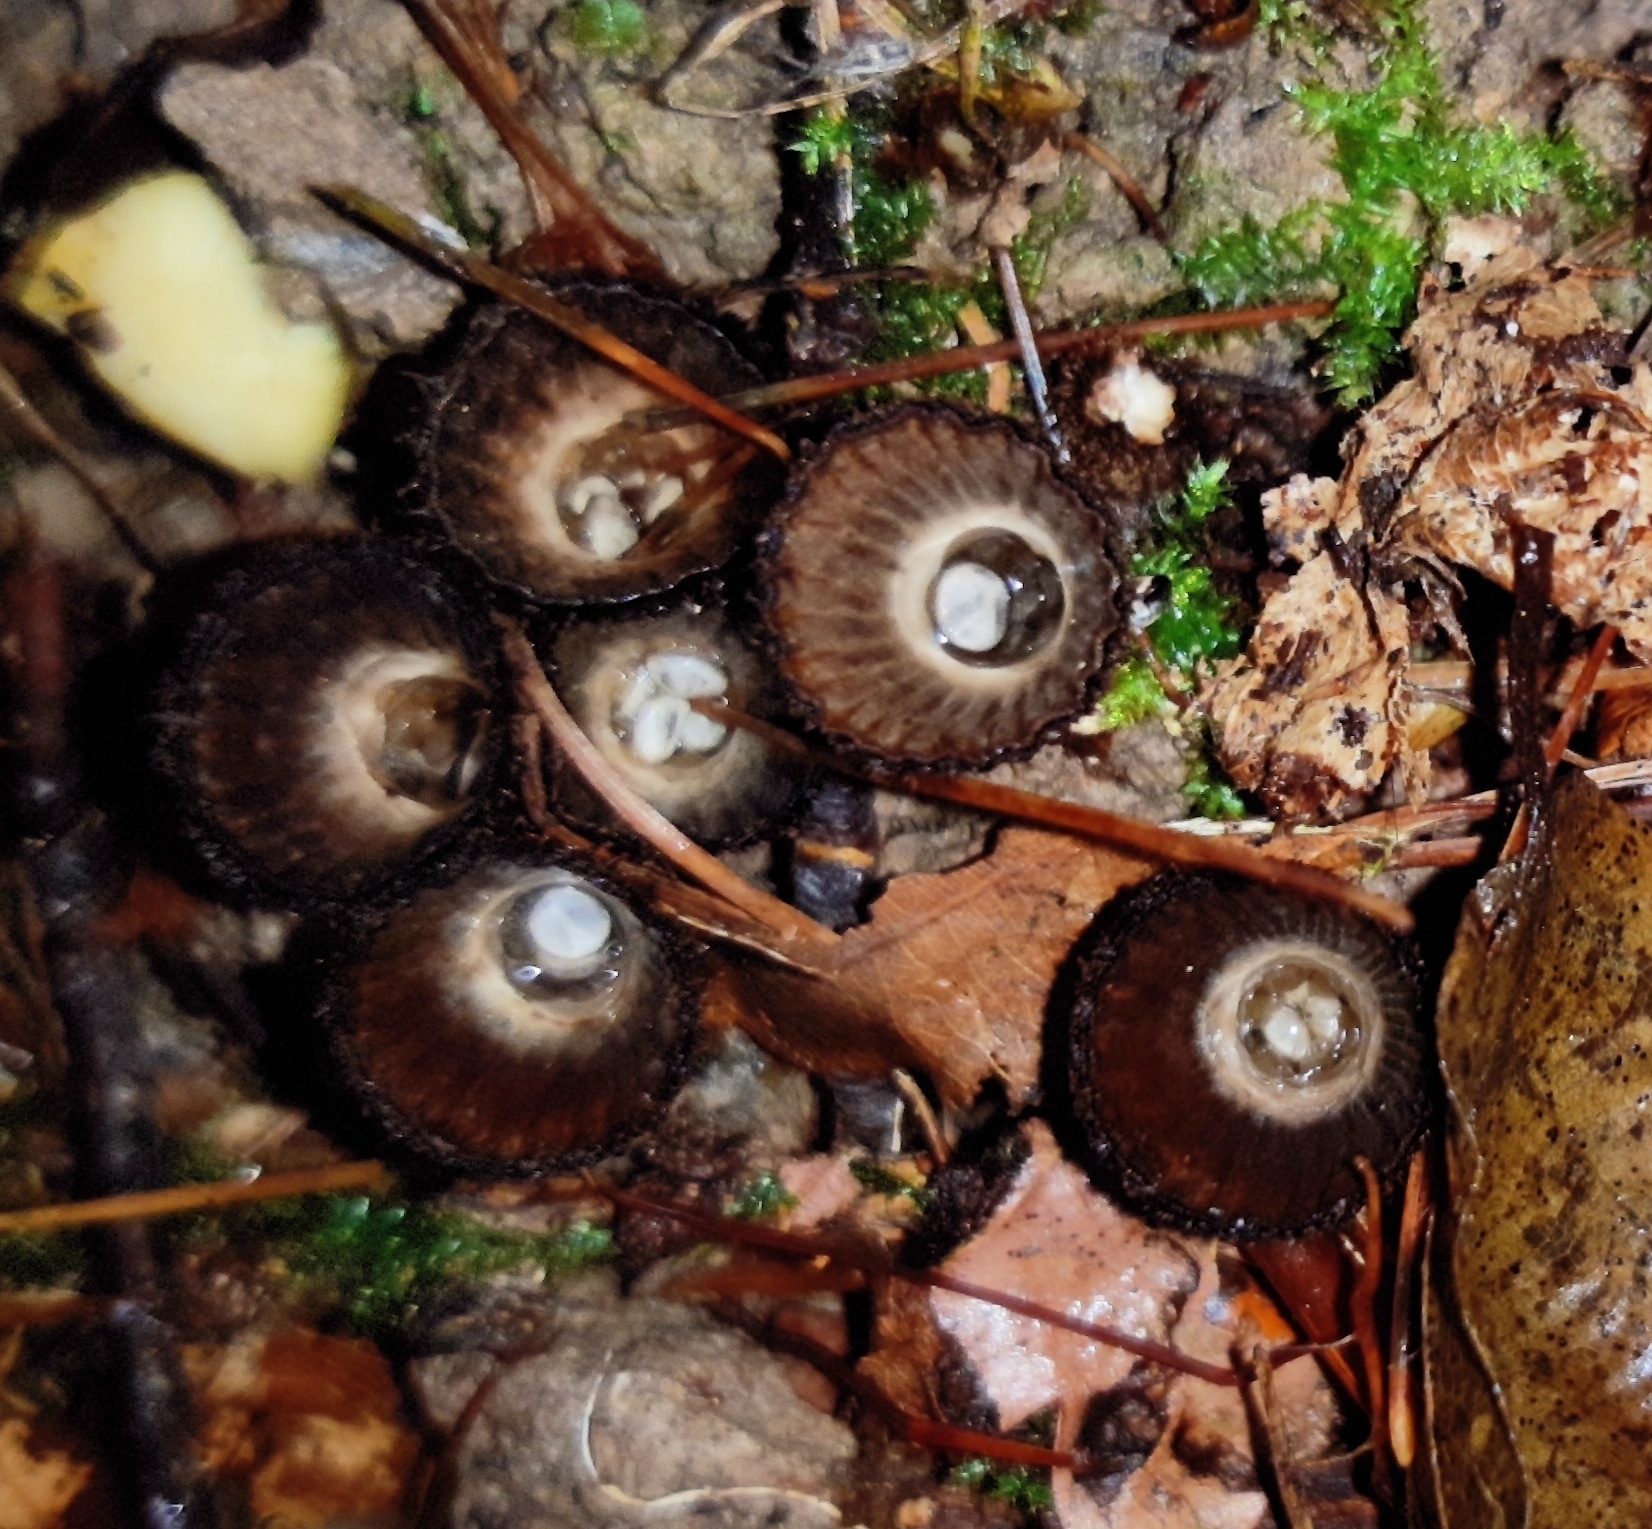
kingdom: Fungi
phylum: Basidiomycota
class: Agaricomycetes
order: Agaricales
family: Agaricaceae
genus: Cyathus
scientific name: Cyathus striatus
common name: Fluted bird's nest
